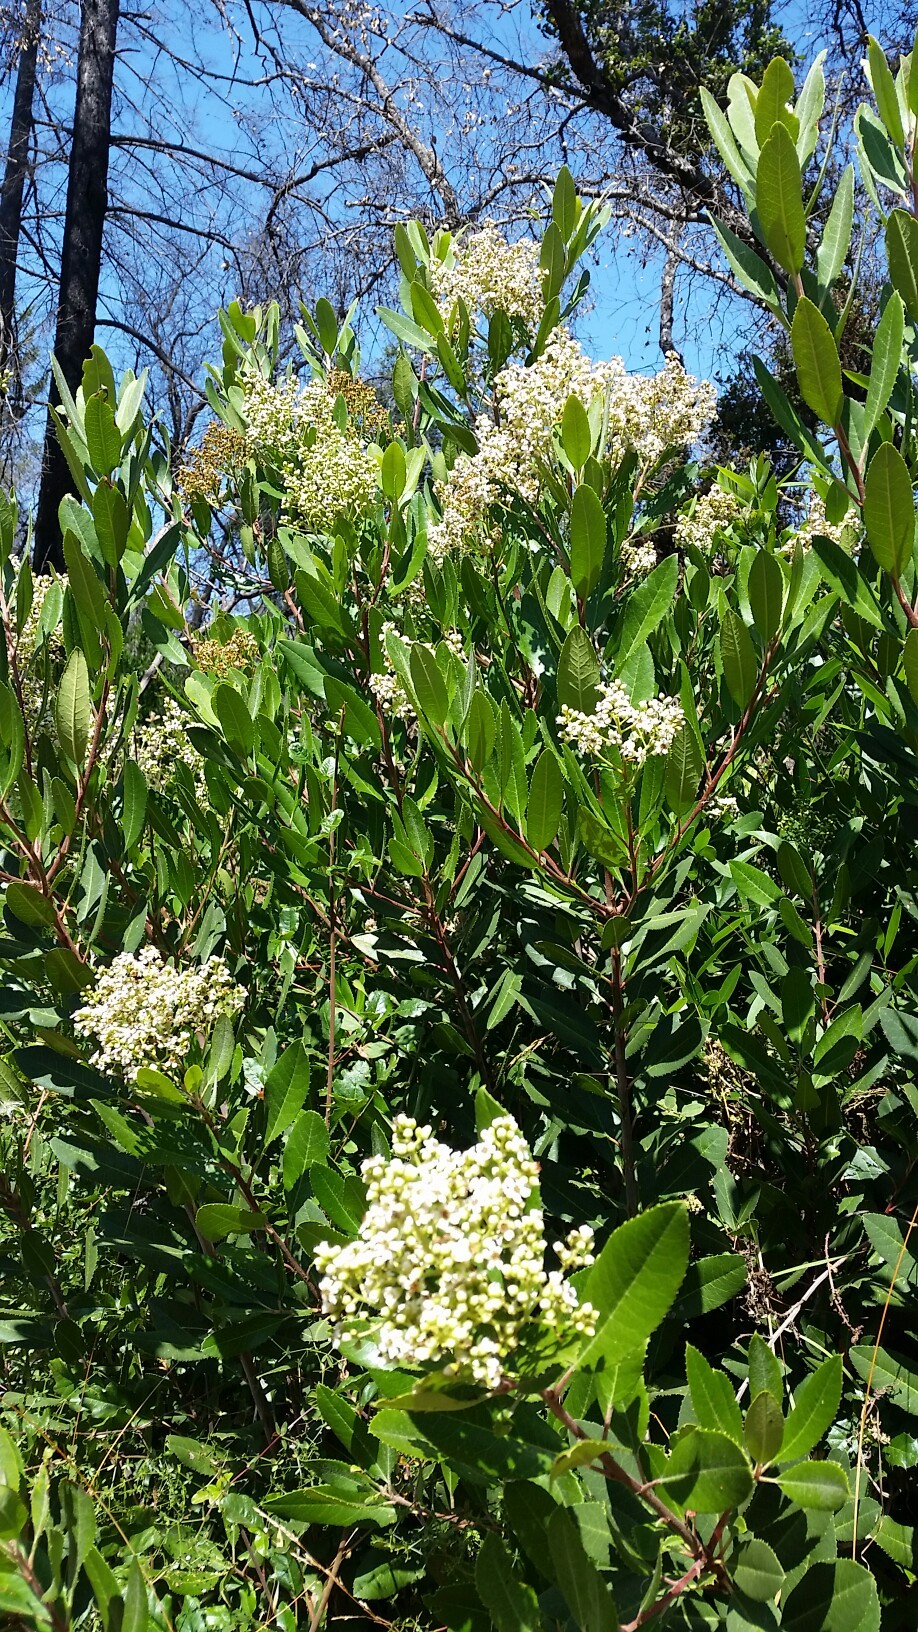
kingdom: Plantae
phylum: Tracheophyta
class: Magnoliopsida
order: Rosales
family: Rosaceae
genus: Heteromeles
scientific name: Heteromeles arbutifolia
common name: California-holly
